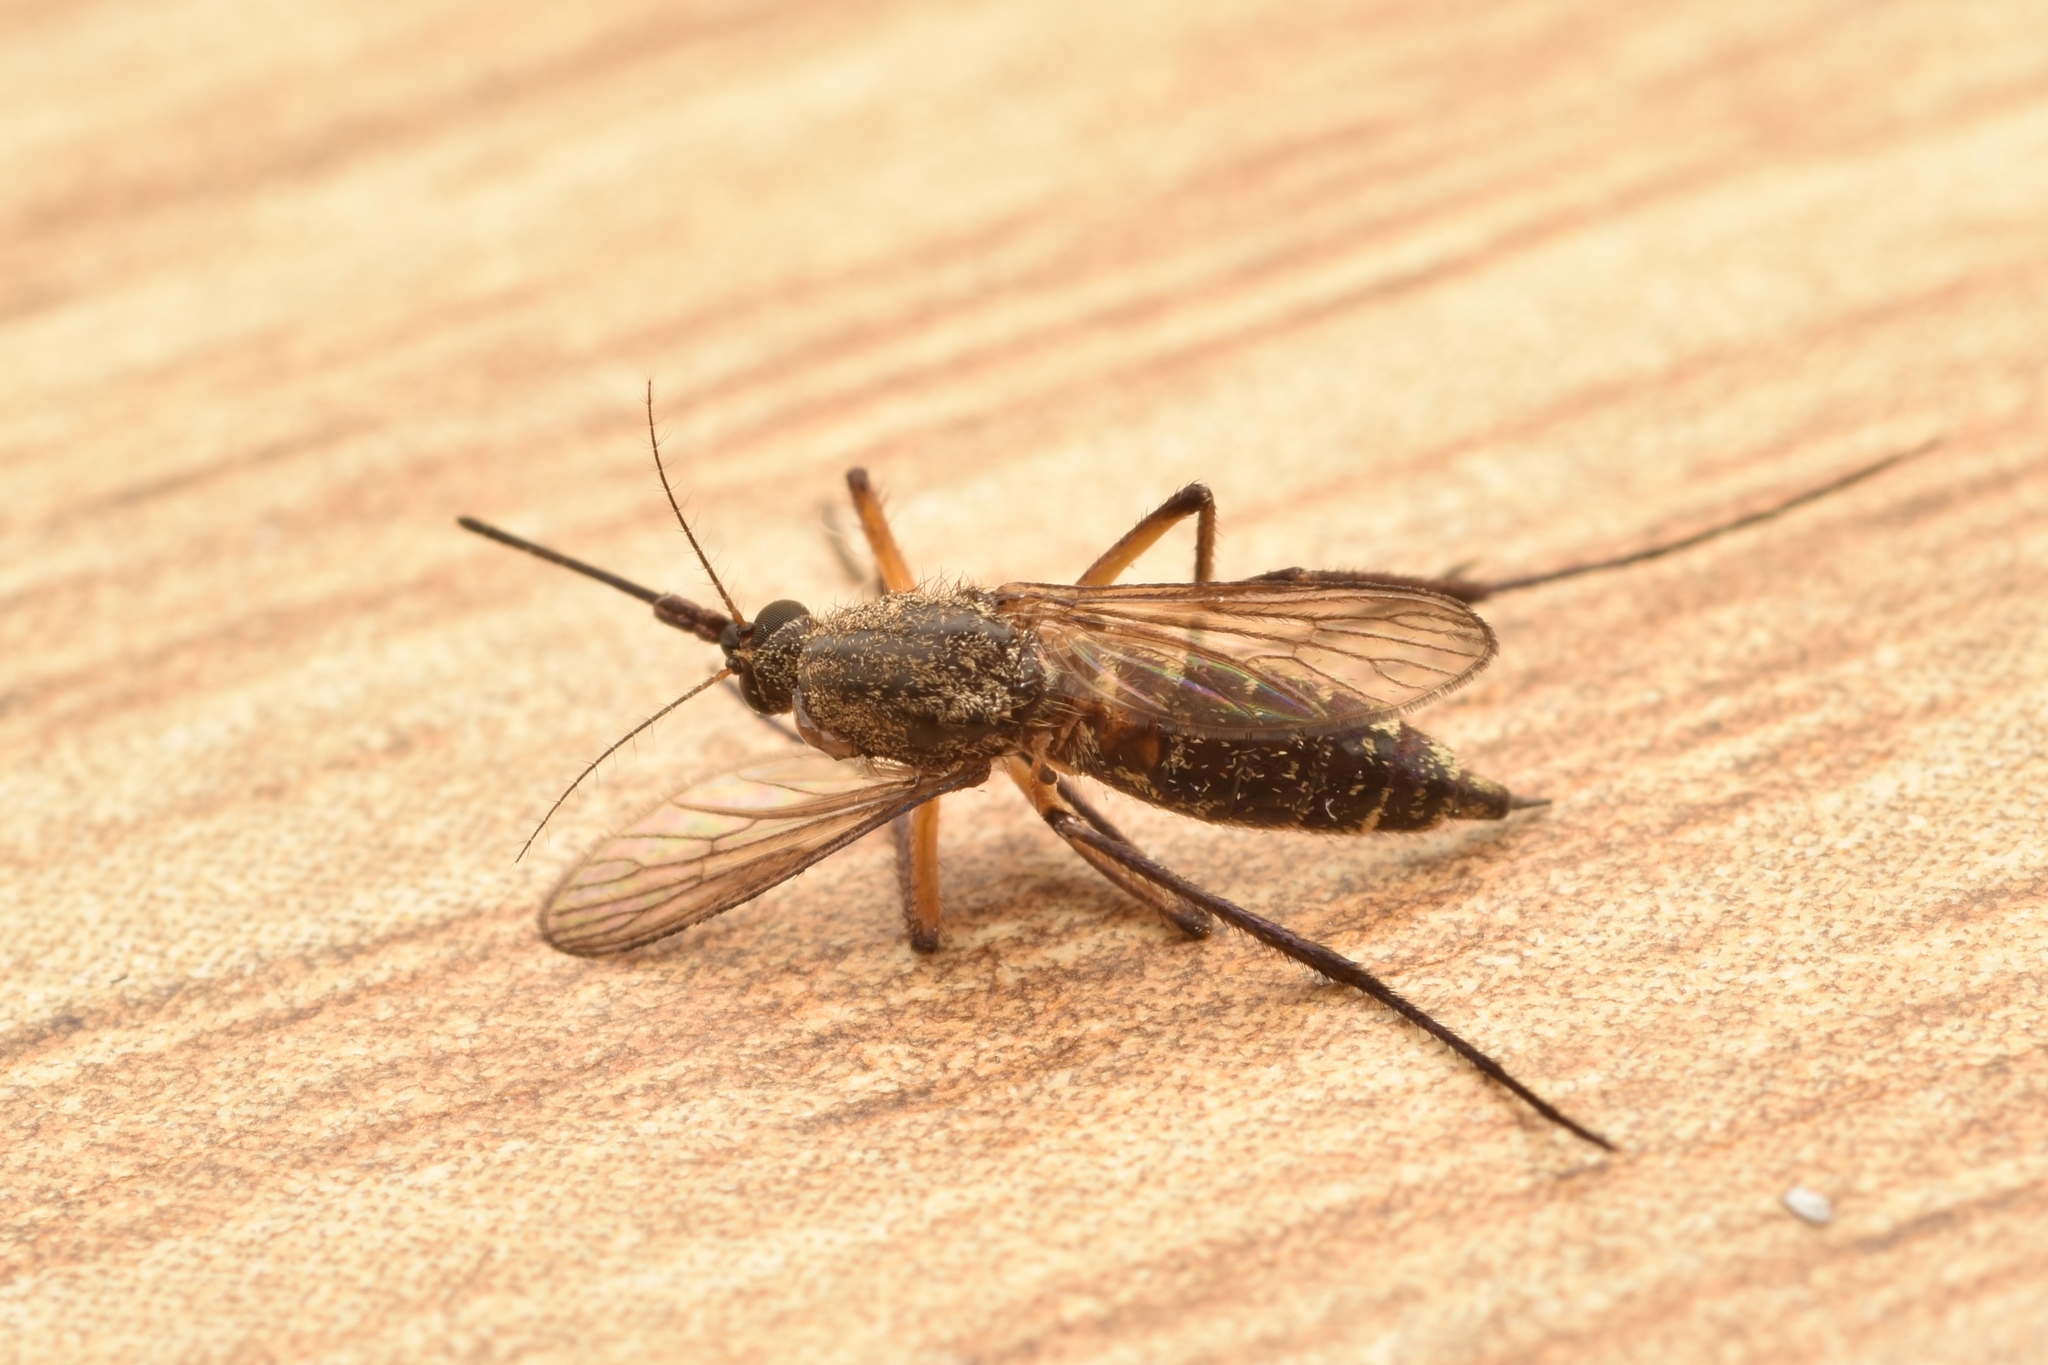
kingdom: Animalia
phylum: Arthropoda
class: Insecta
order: Diptera
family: Culicidae
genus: Psorophora
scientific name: Psorophora cyanescens
